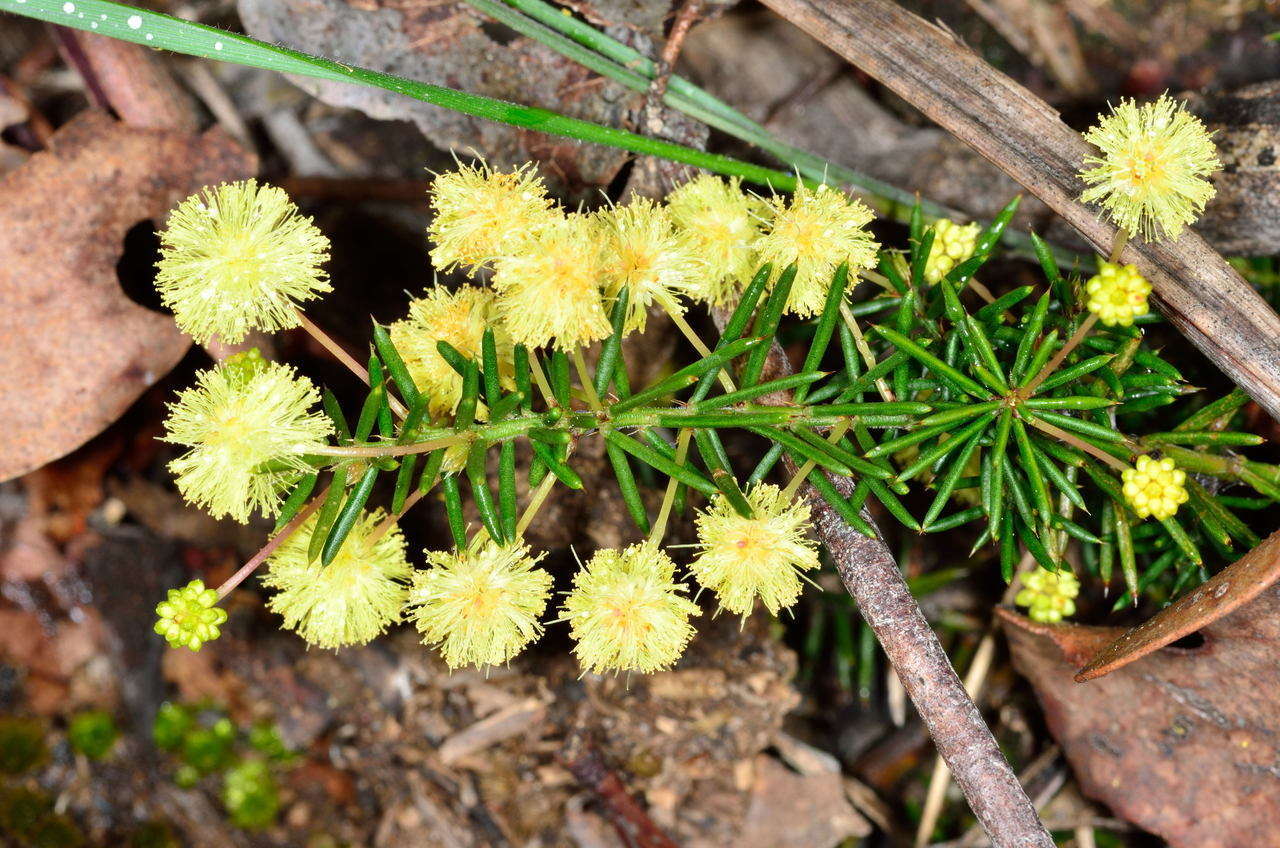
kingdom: Plantae
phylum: Tracheophyta
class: Magnoliopsida
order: Fabales
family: Fabaceae
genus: Acacia
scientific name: Acacia aculeatissima
